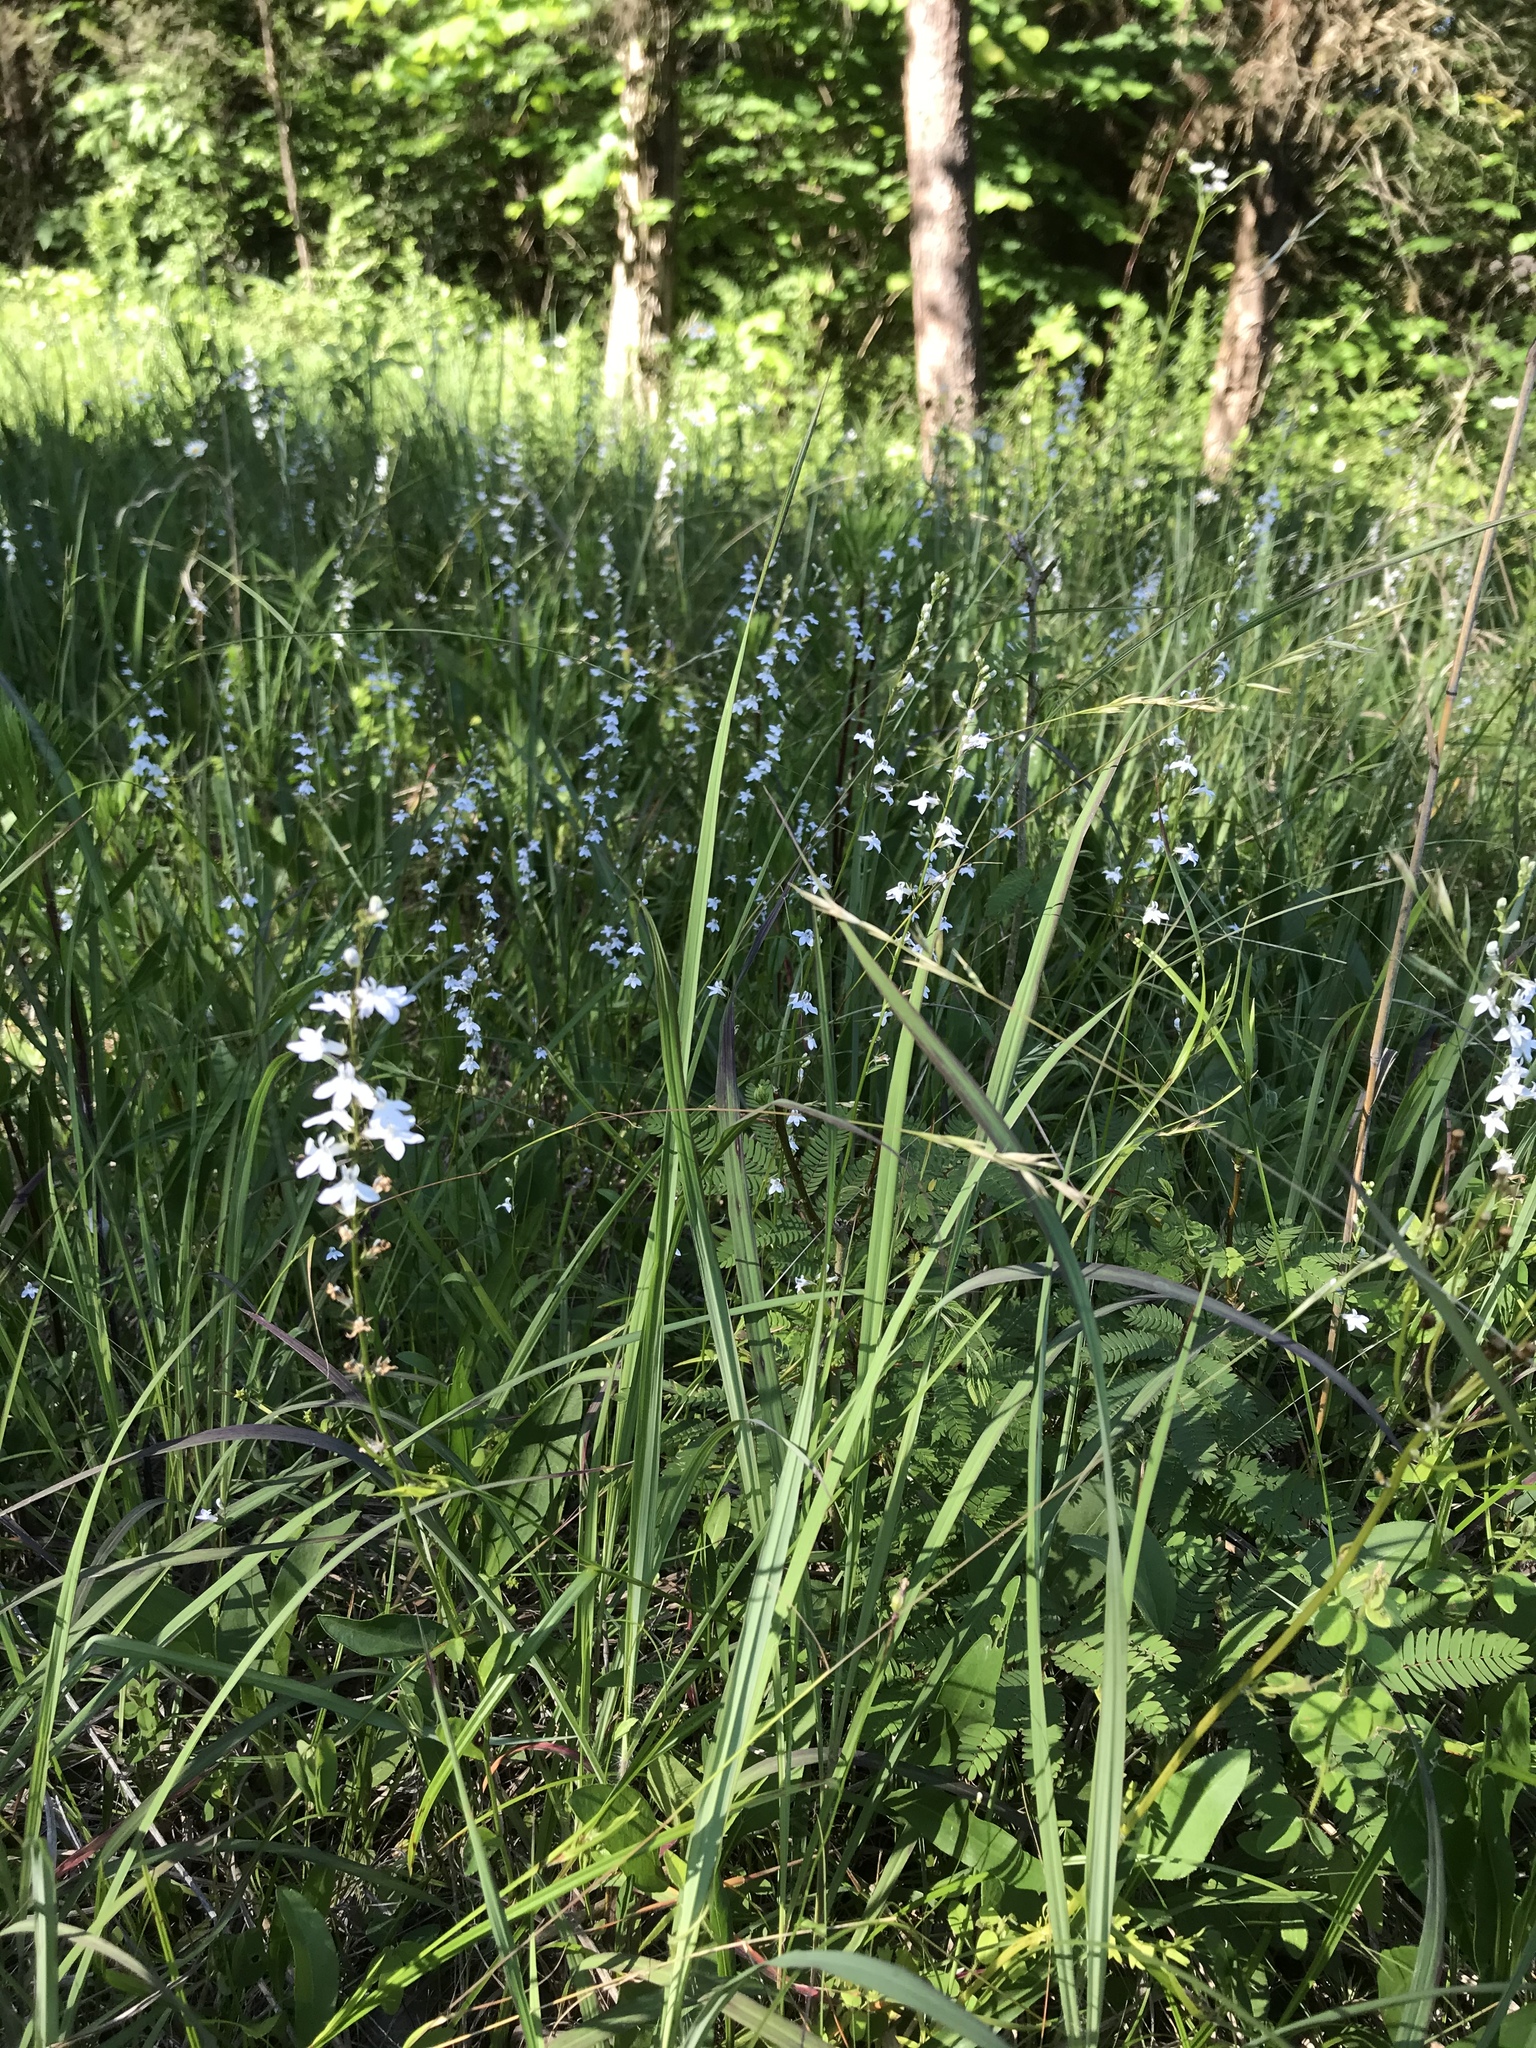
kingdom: Plantae
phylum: Tracheophyta
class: Magnoliopsida
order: Asterales
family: Campanulaceae
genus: Lobelia
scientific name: Lobelia spicata
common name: Pale-spike lobelia
